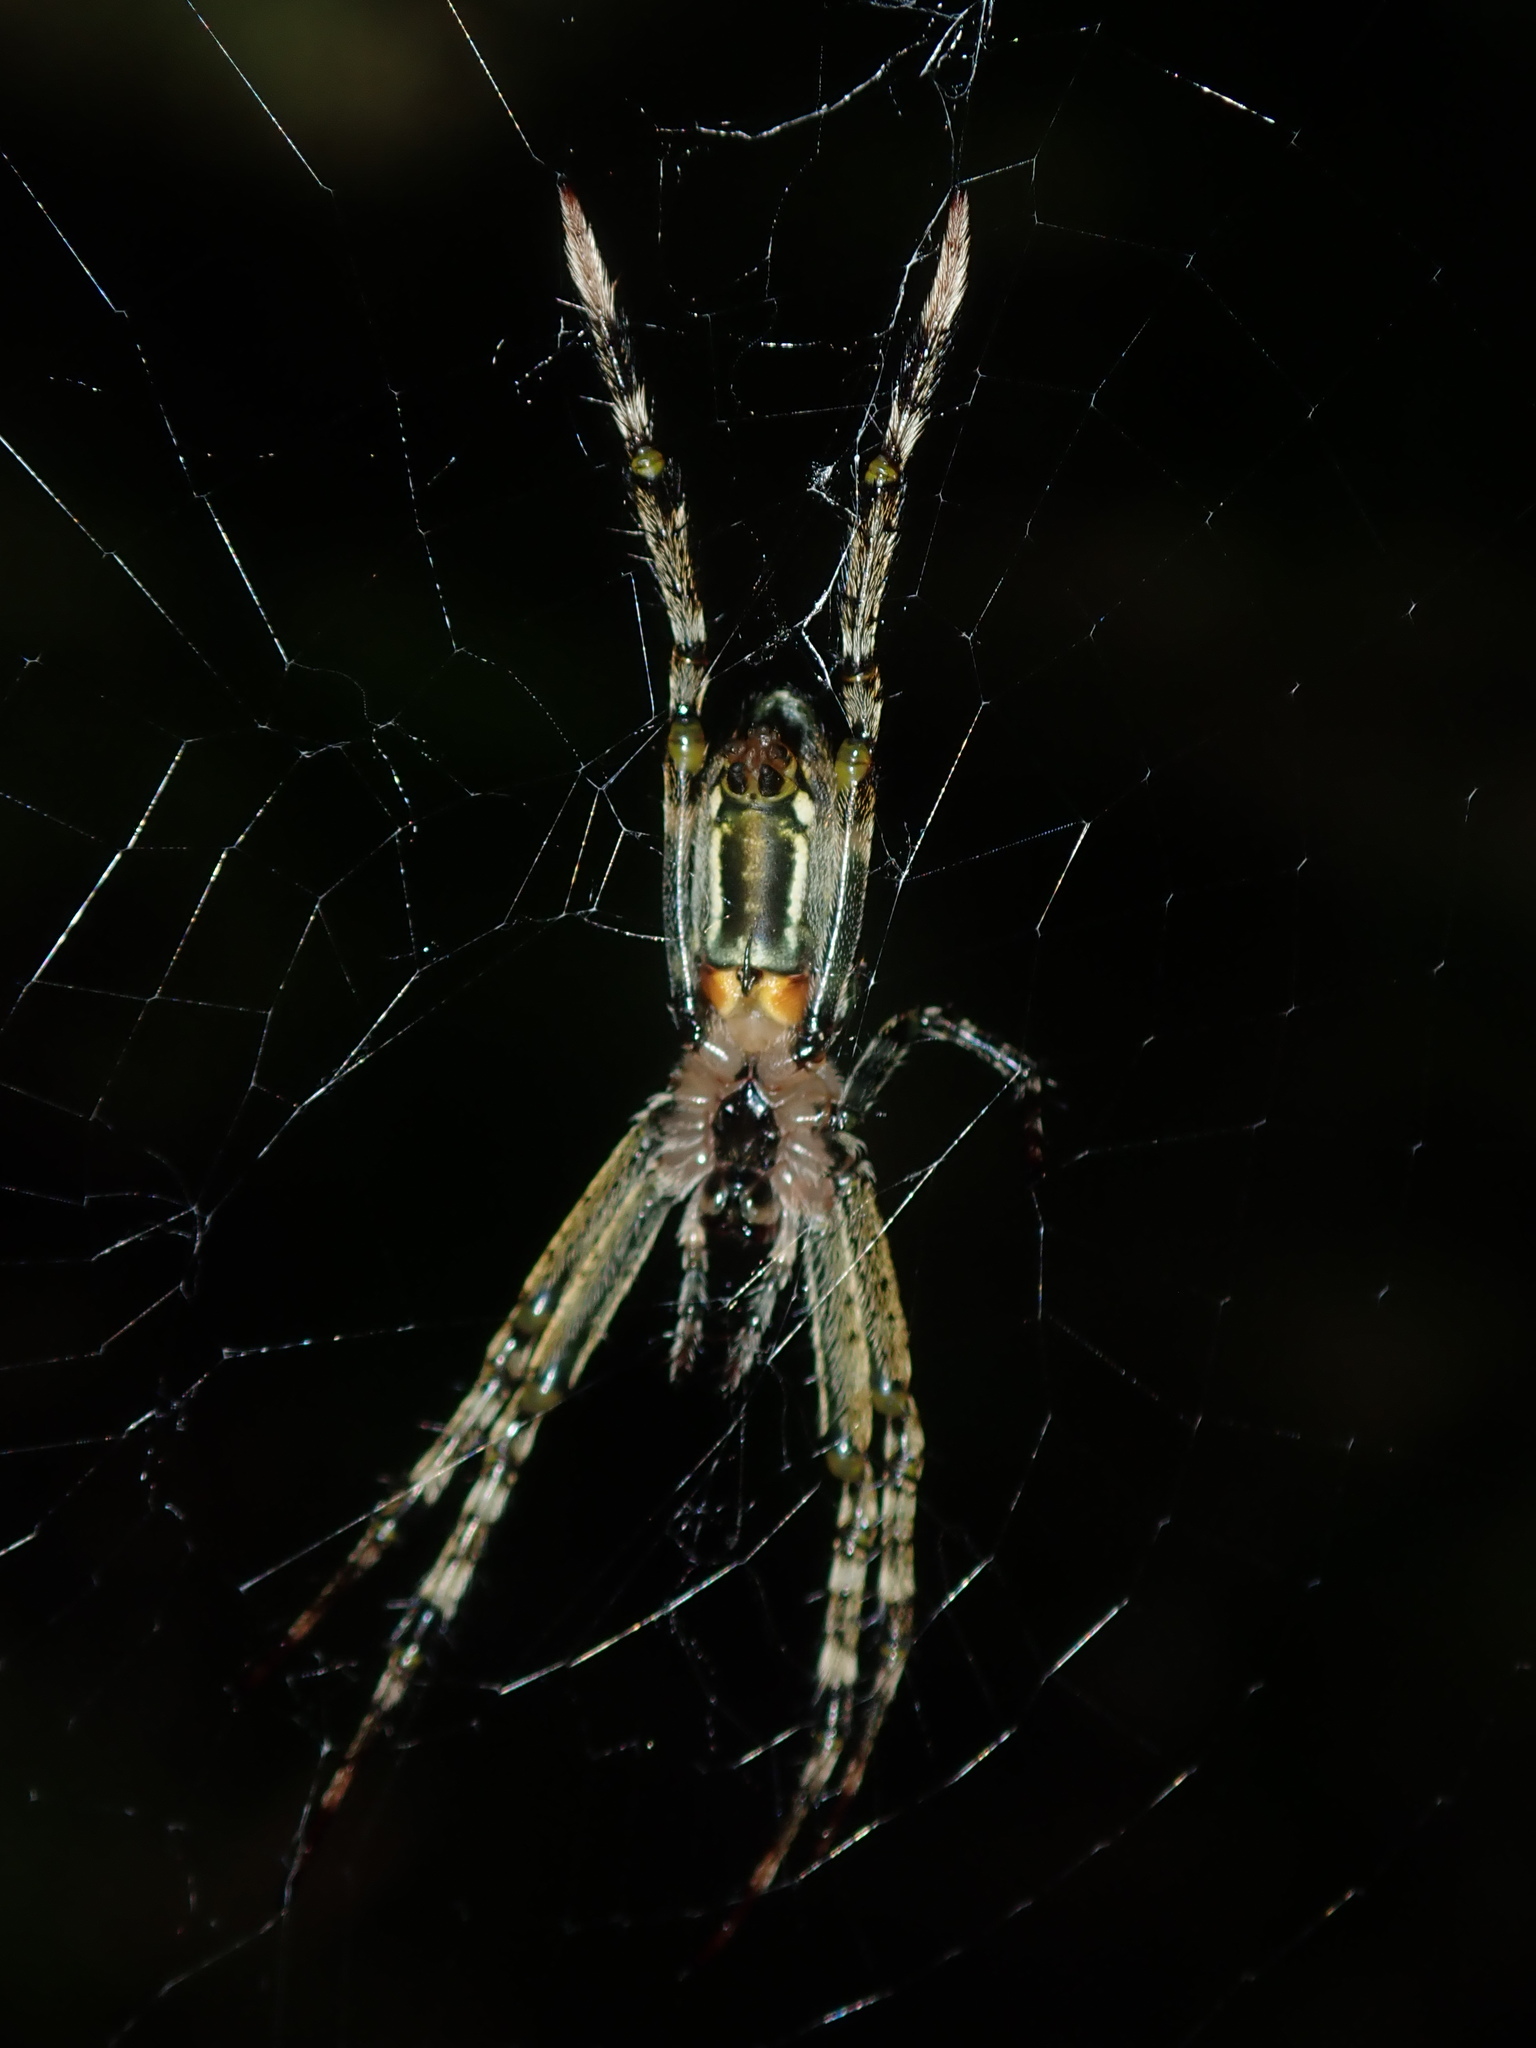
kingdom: Animalia
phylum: Arthropoda
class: Arachnida
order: Araneae
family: Araneidae
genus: Plebs
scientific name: Plebs bradleyi
